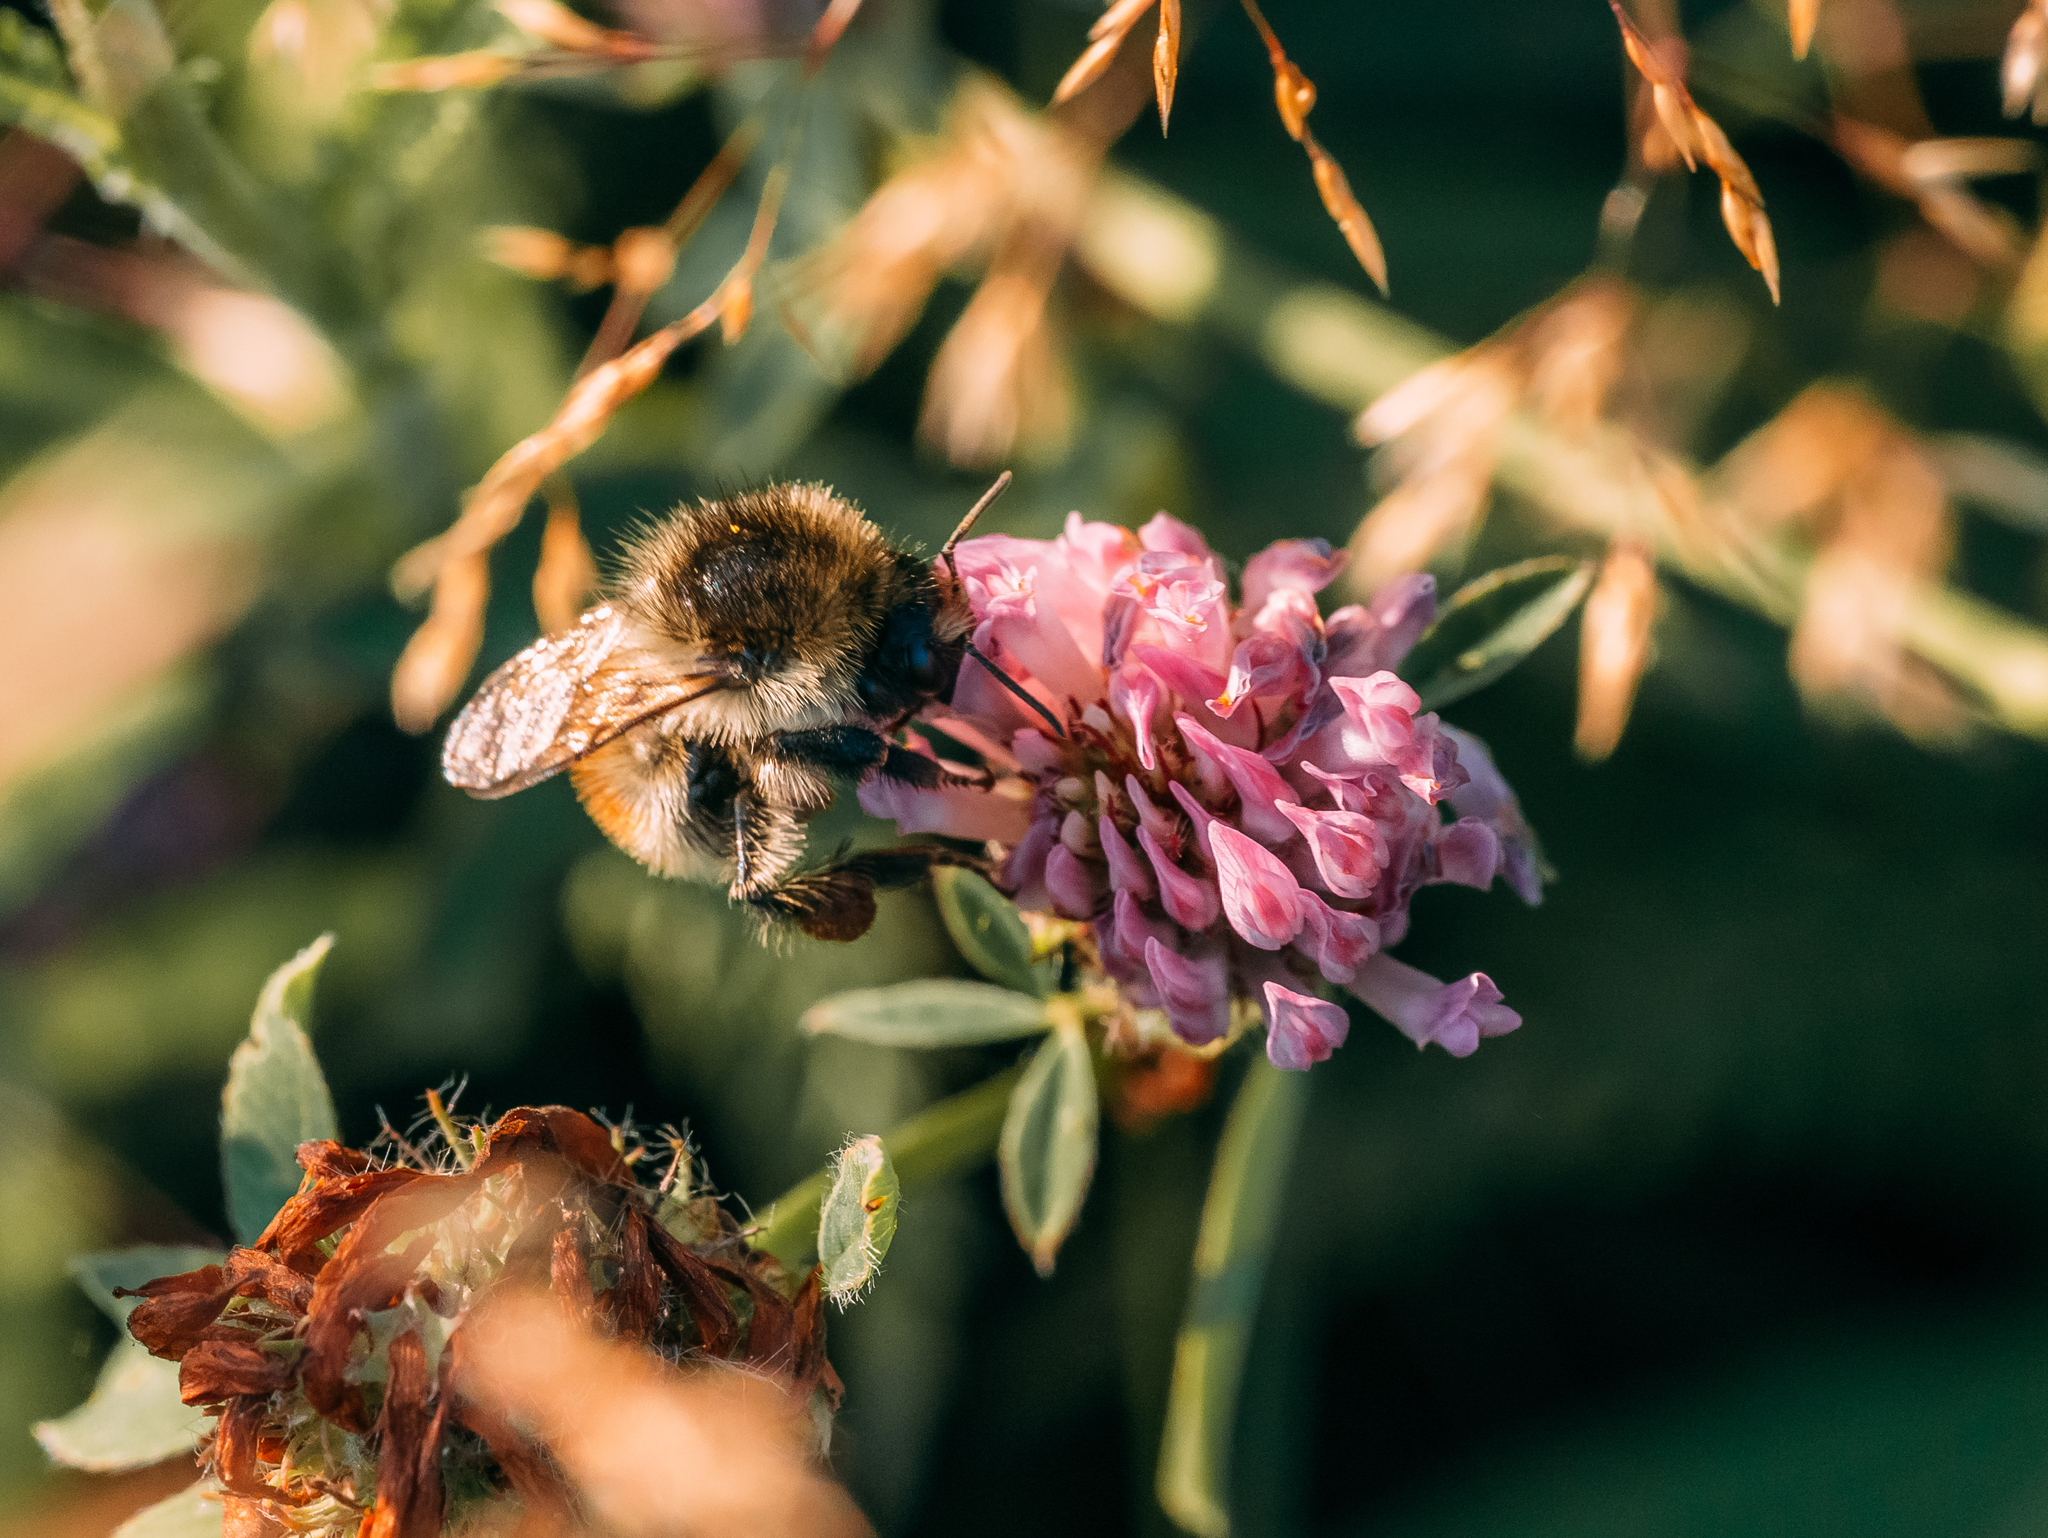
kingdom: Animalia
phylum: Arthropoda
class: Insecta
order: Hymenoptera
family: Apidae
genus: Bombus
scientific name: Bombus humilis
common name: Brown-banded carder-bee
